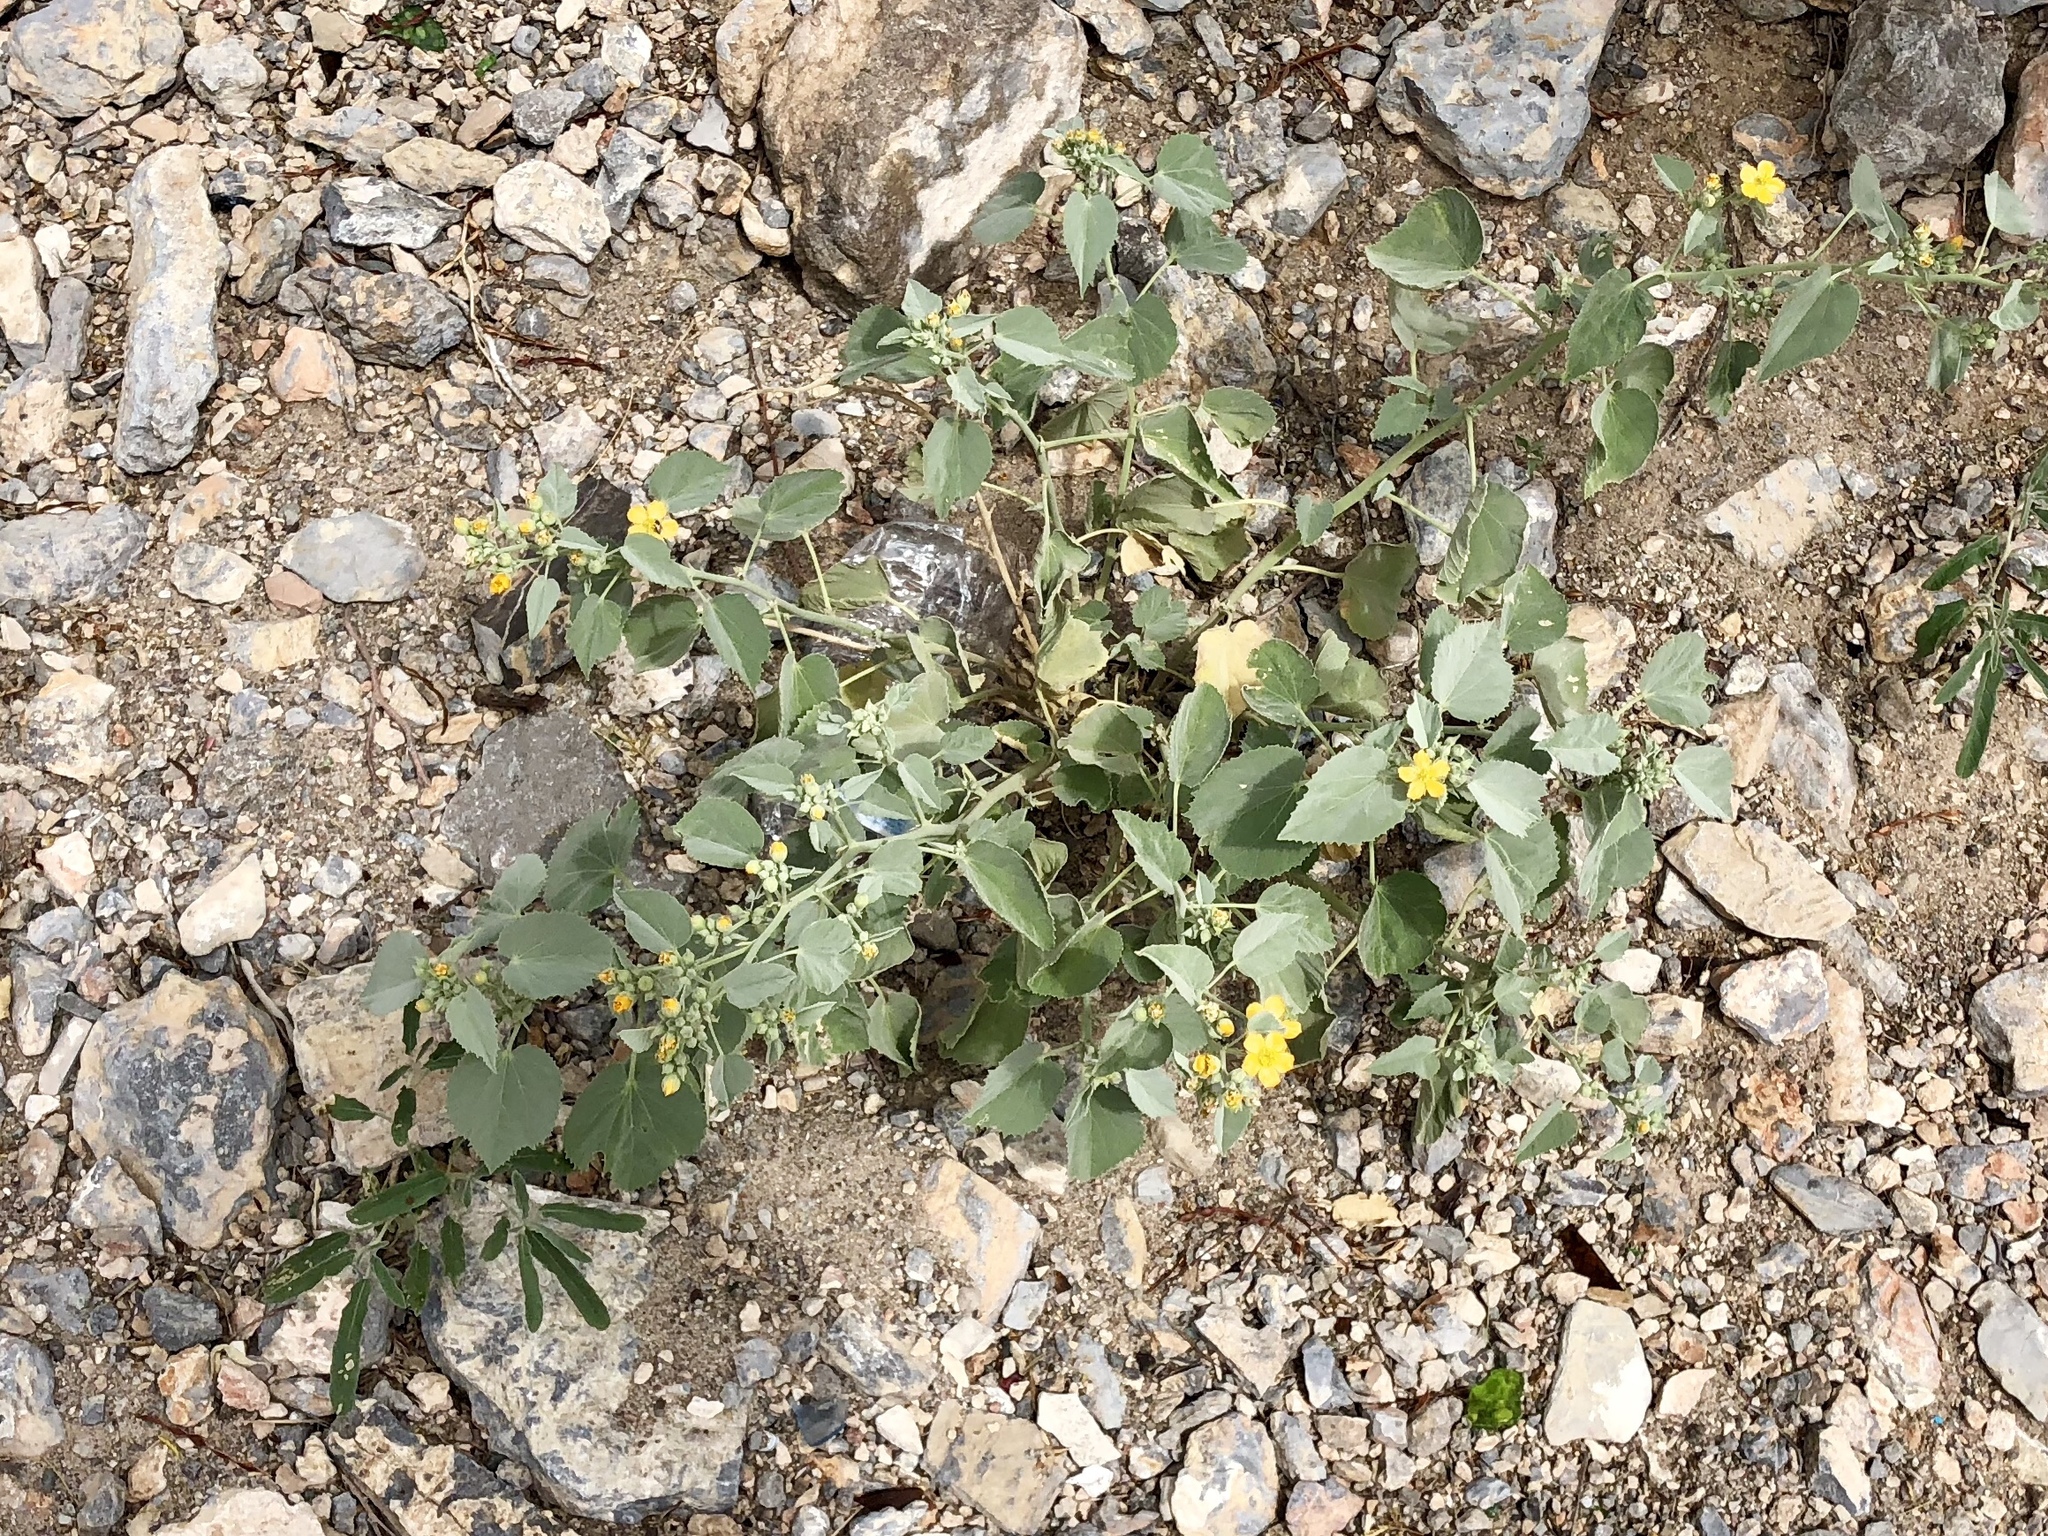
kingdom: Plantae
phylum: Tracheophyta
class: Magnoliopsida
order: Malvales
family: Malvaceae
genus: Abutilon
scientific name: Abutilon malacum
